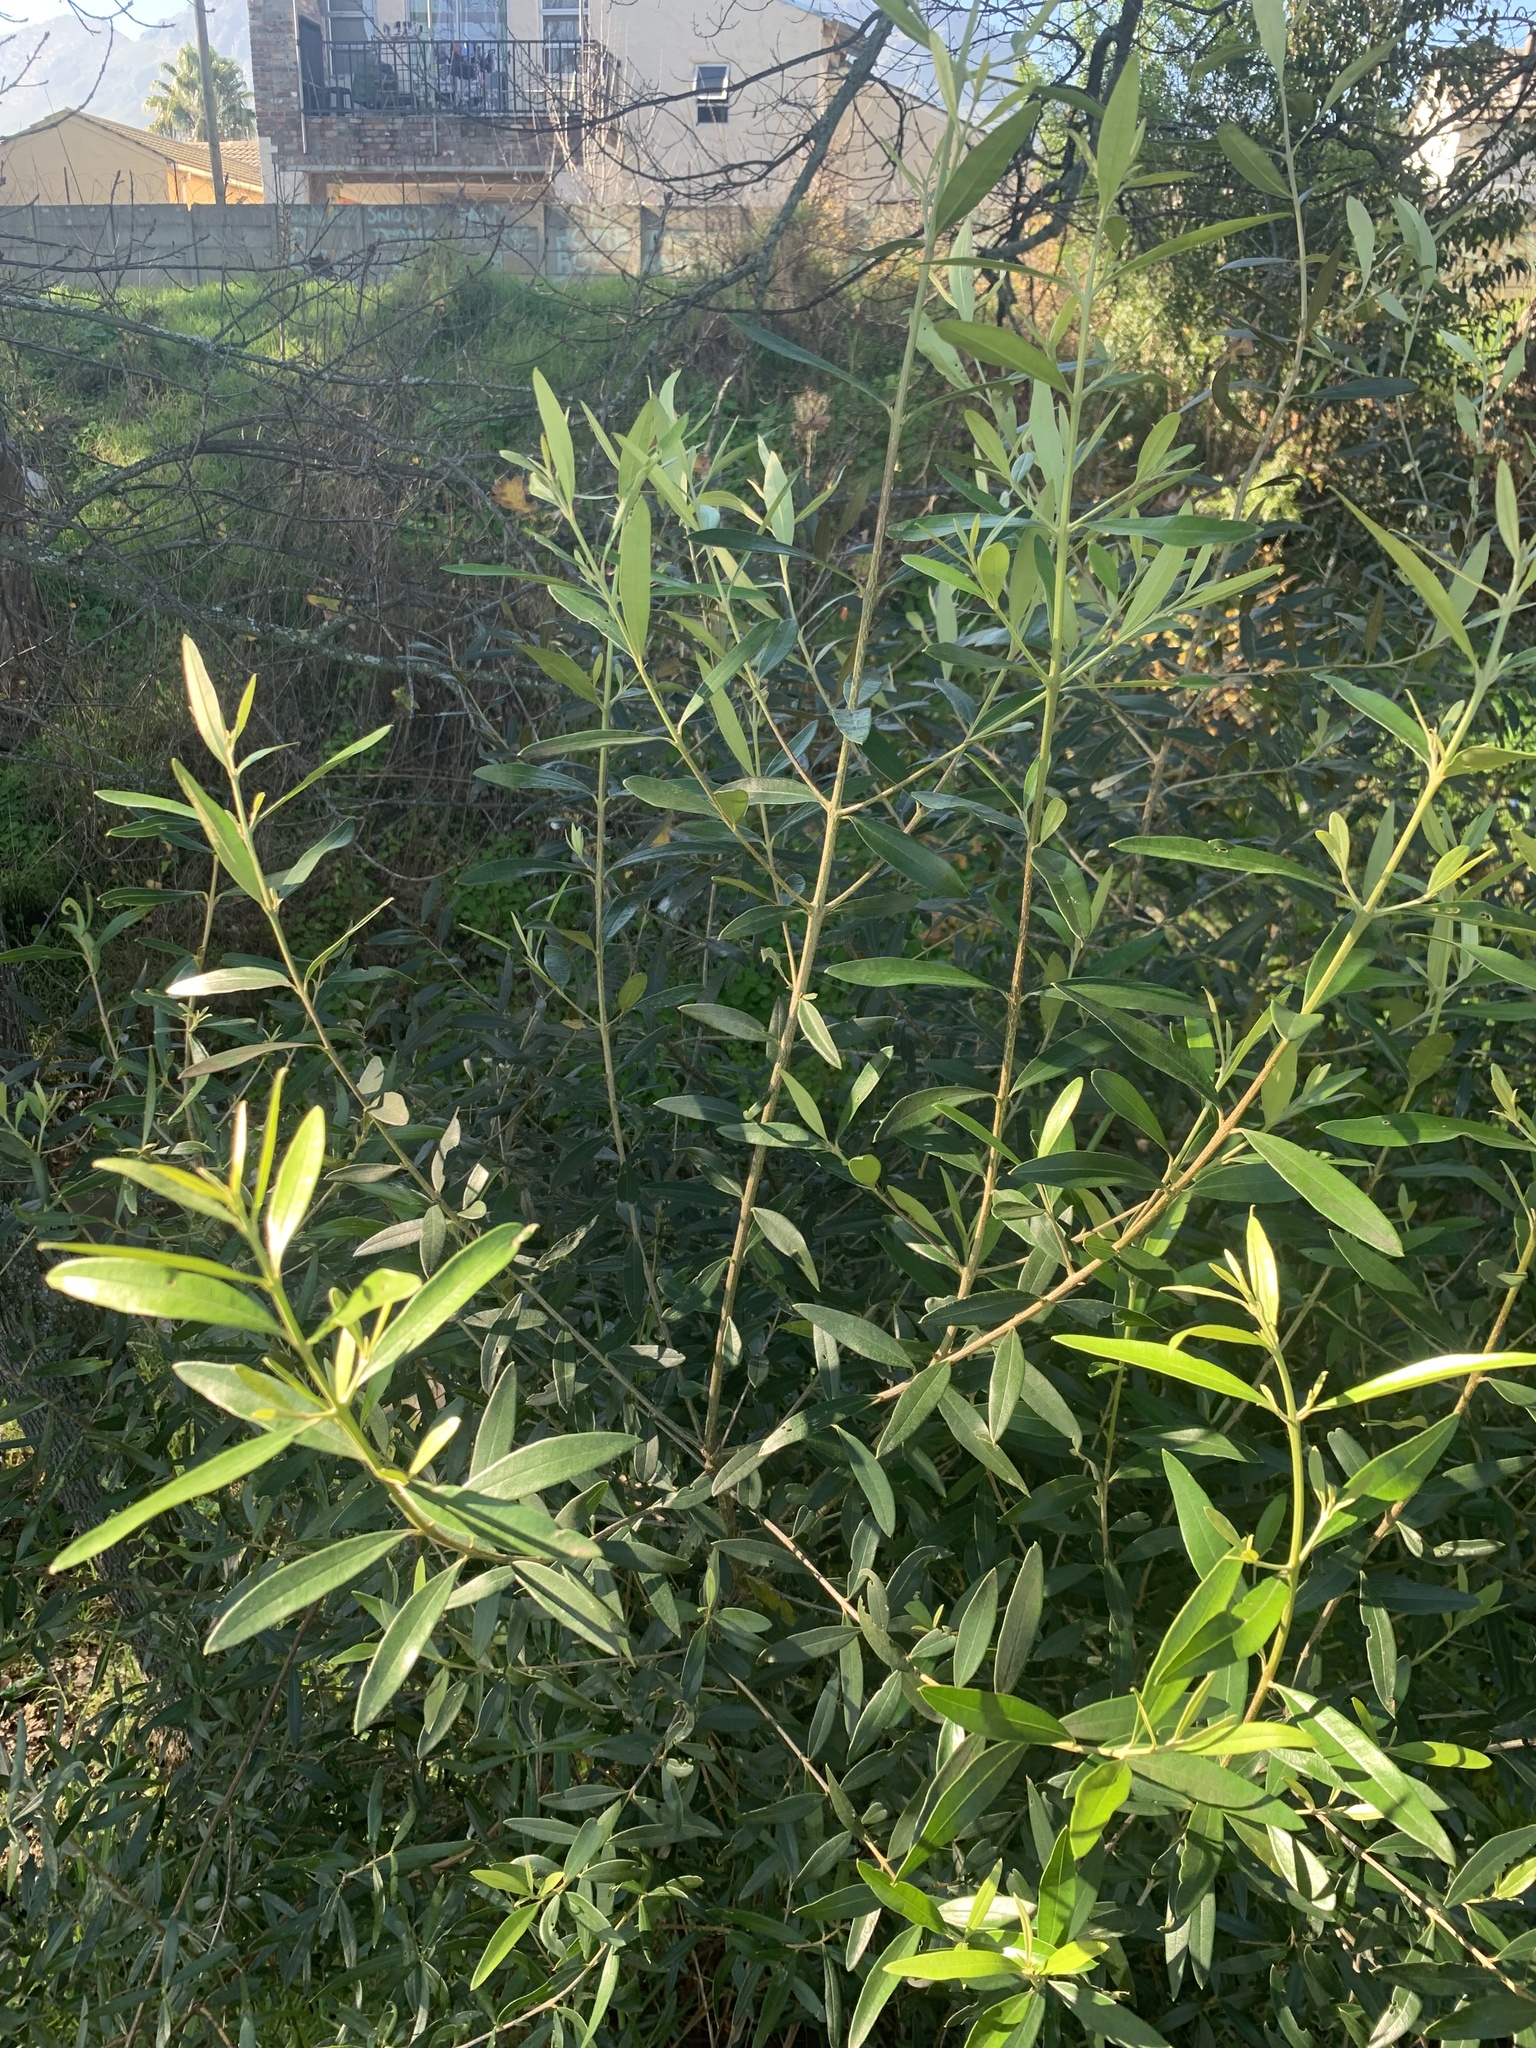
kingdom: Plantae
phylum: Tracheophyta
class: Magnoliopsida
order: Lamiales
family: Oleaceae
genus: Olea
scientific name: Olea europaea
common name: Olive
